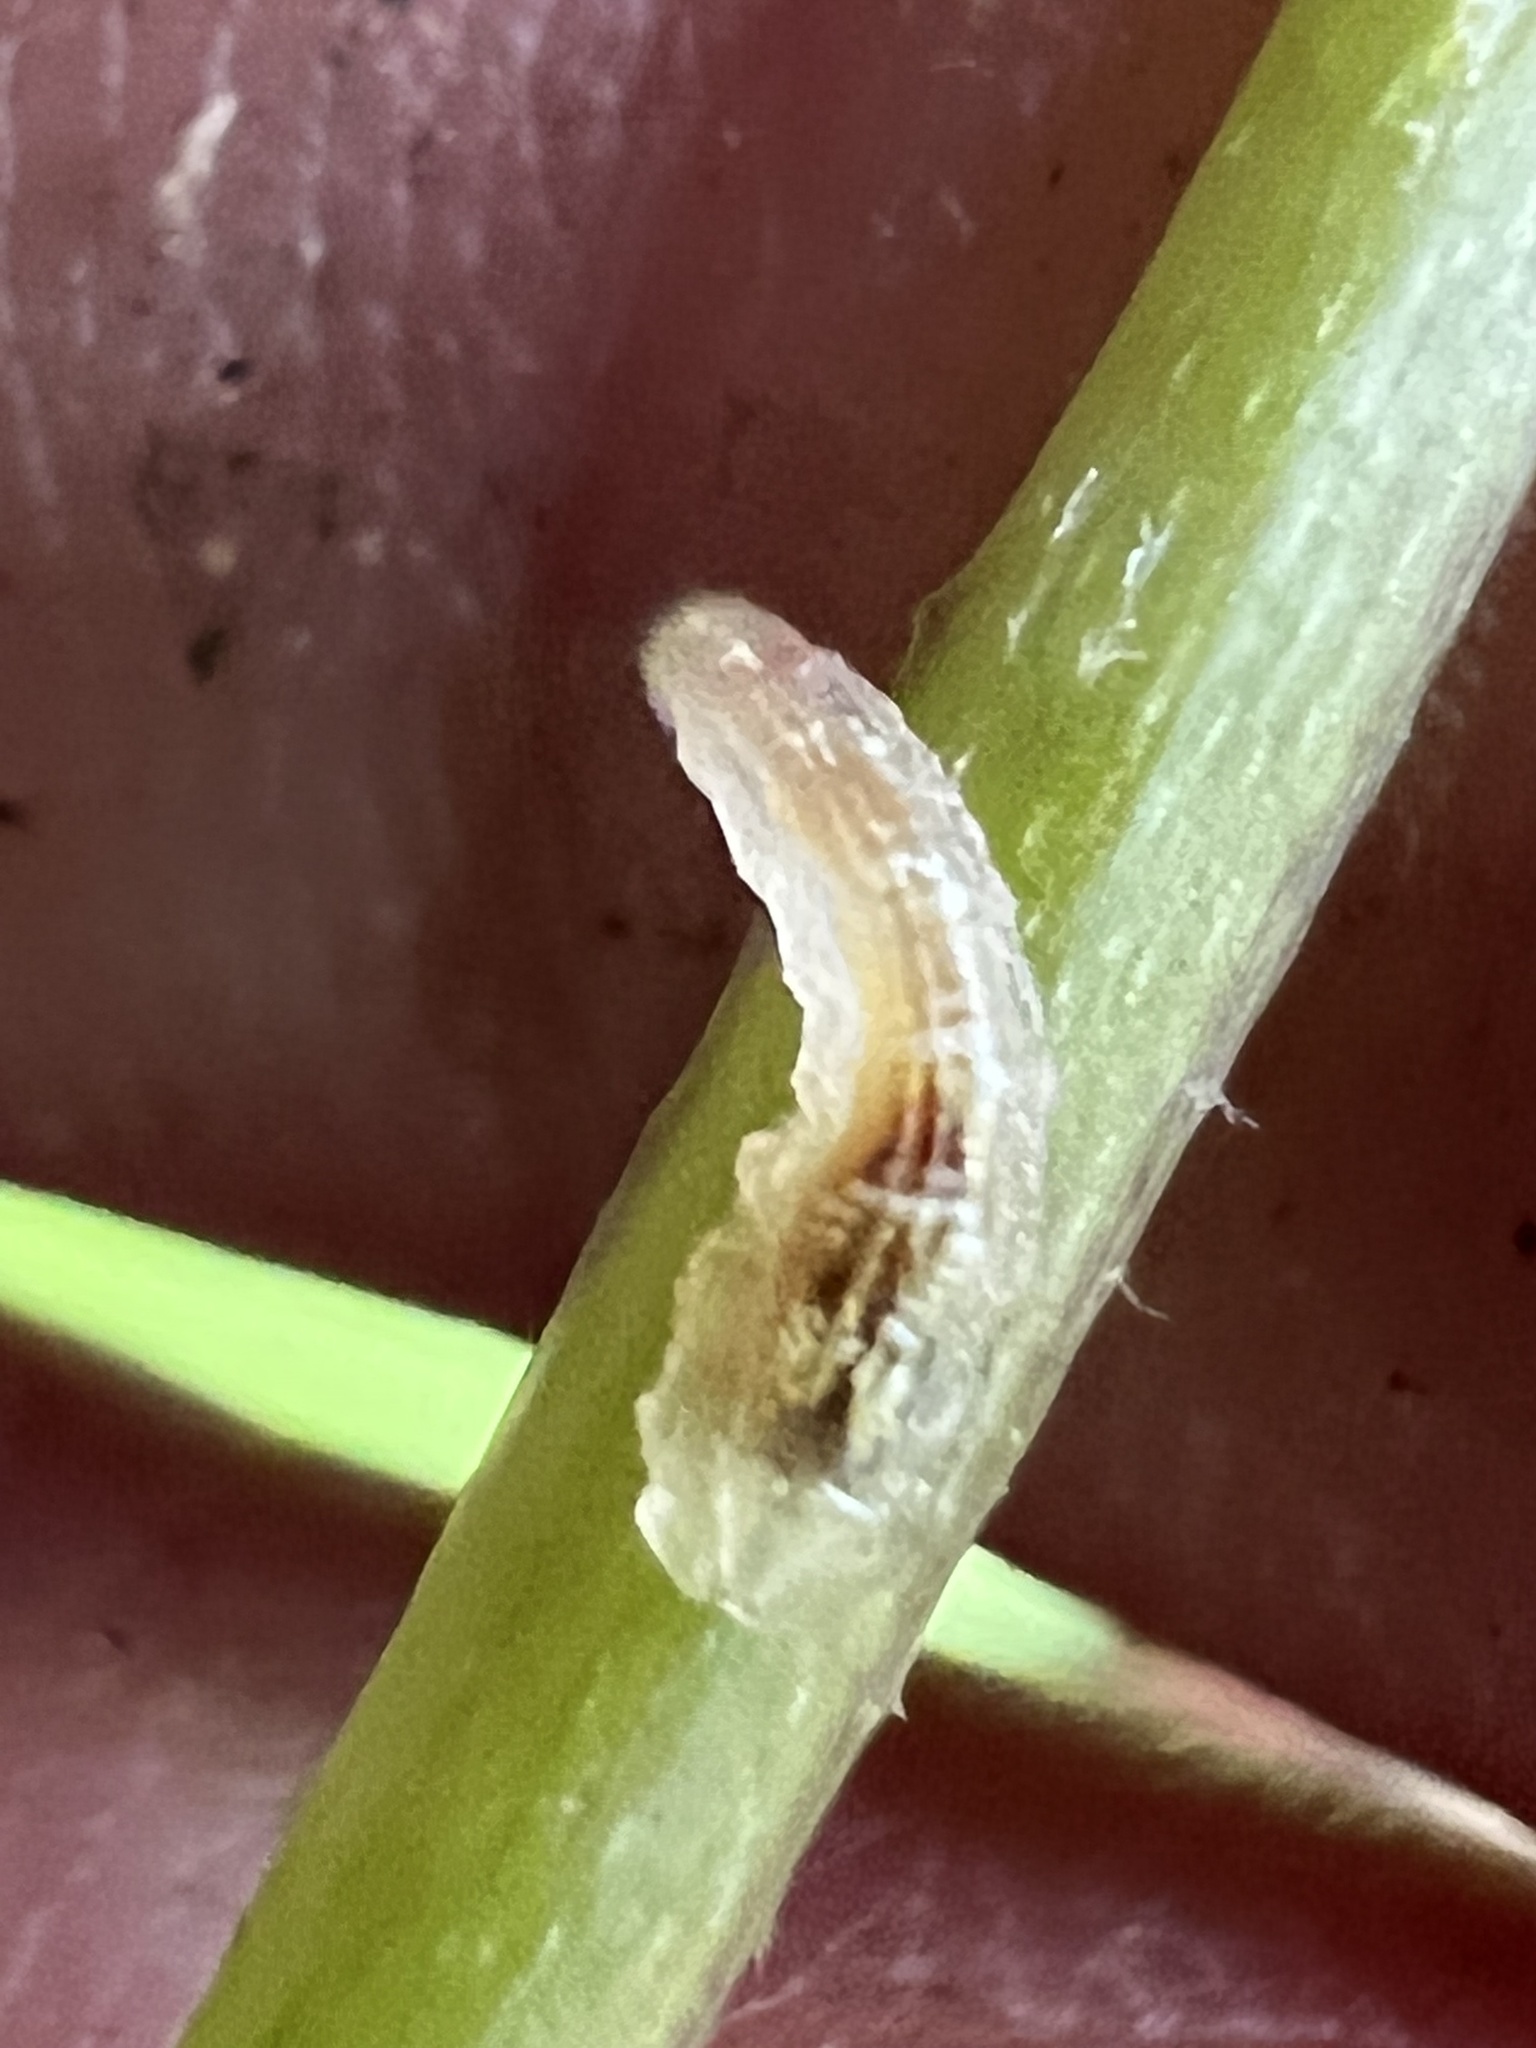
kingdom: Animalia
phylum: Arthropoda
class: Insecta
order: Diptera
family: Syrphidae
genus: Syrphus
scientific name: Syrphus
